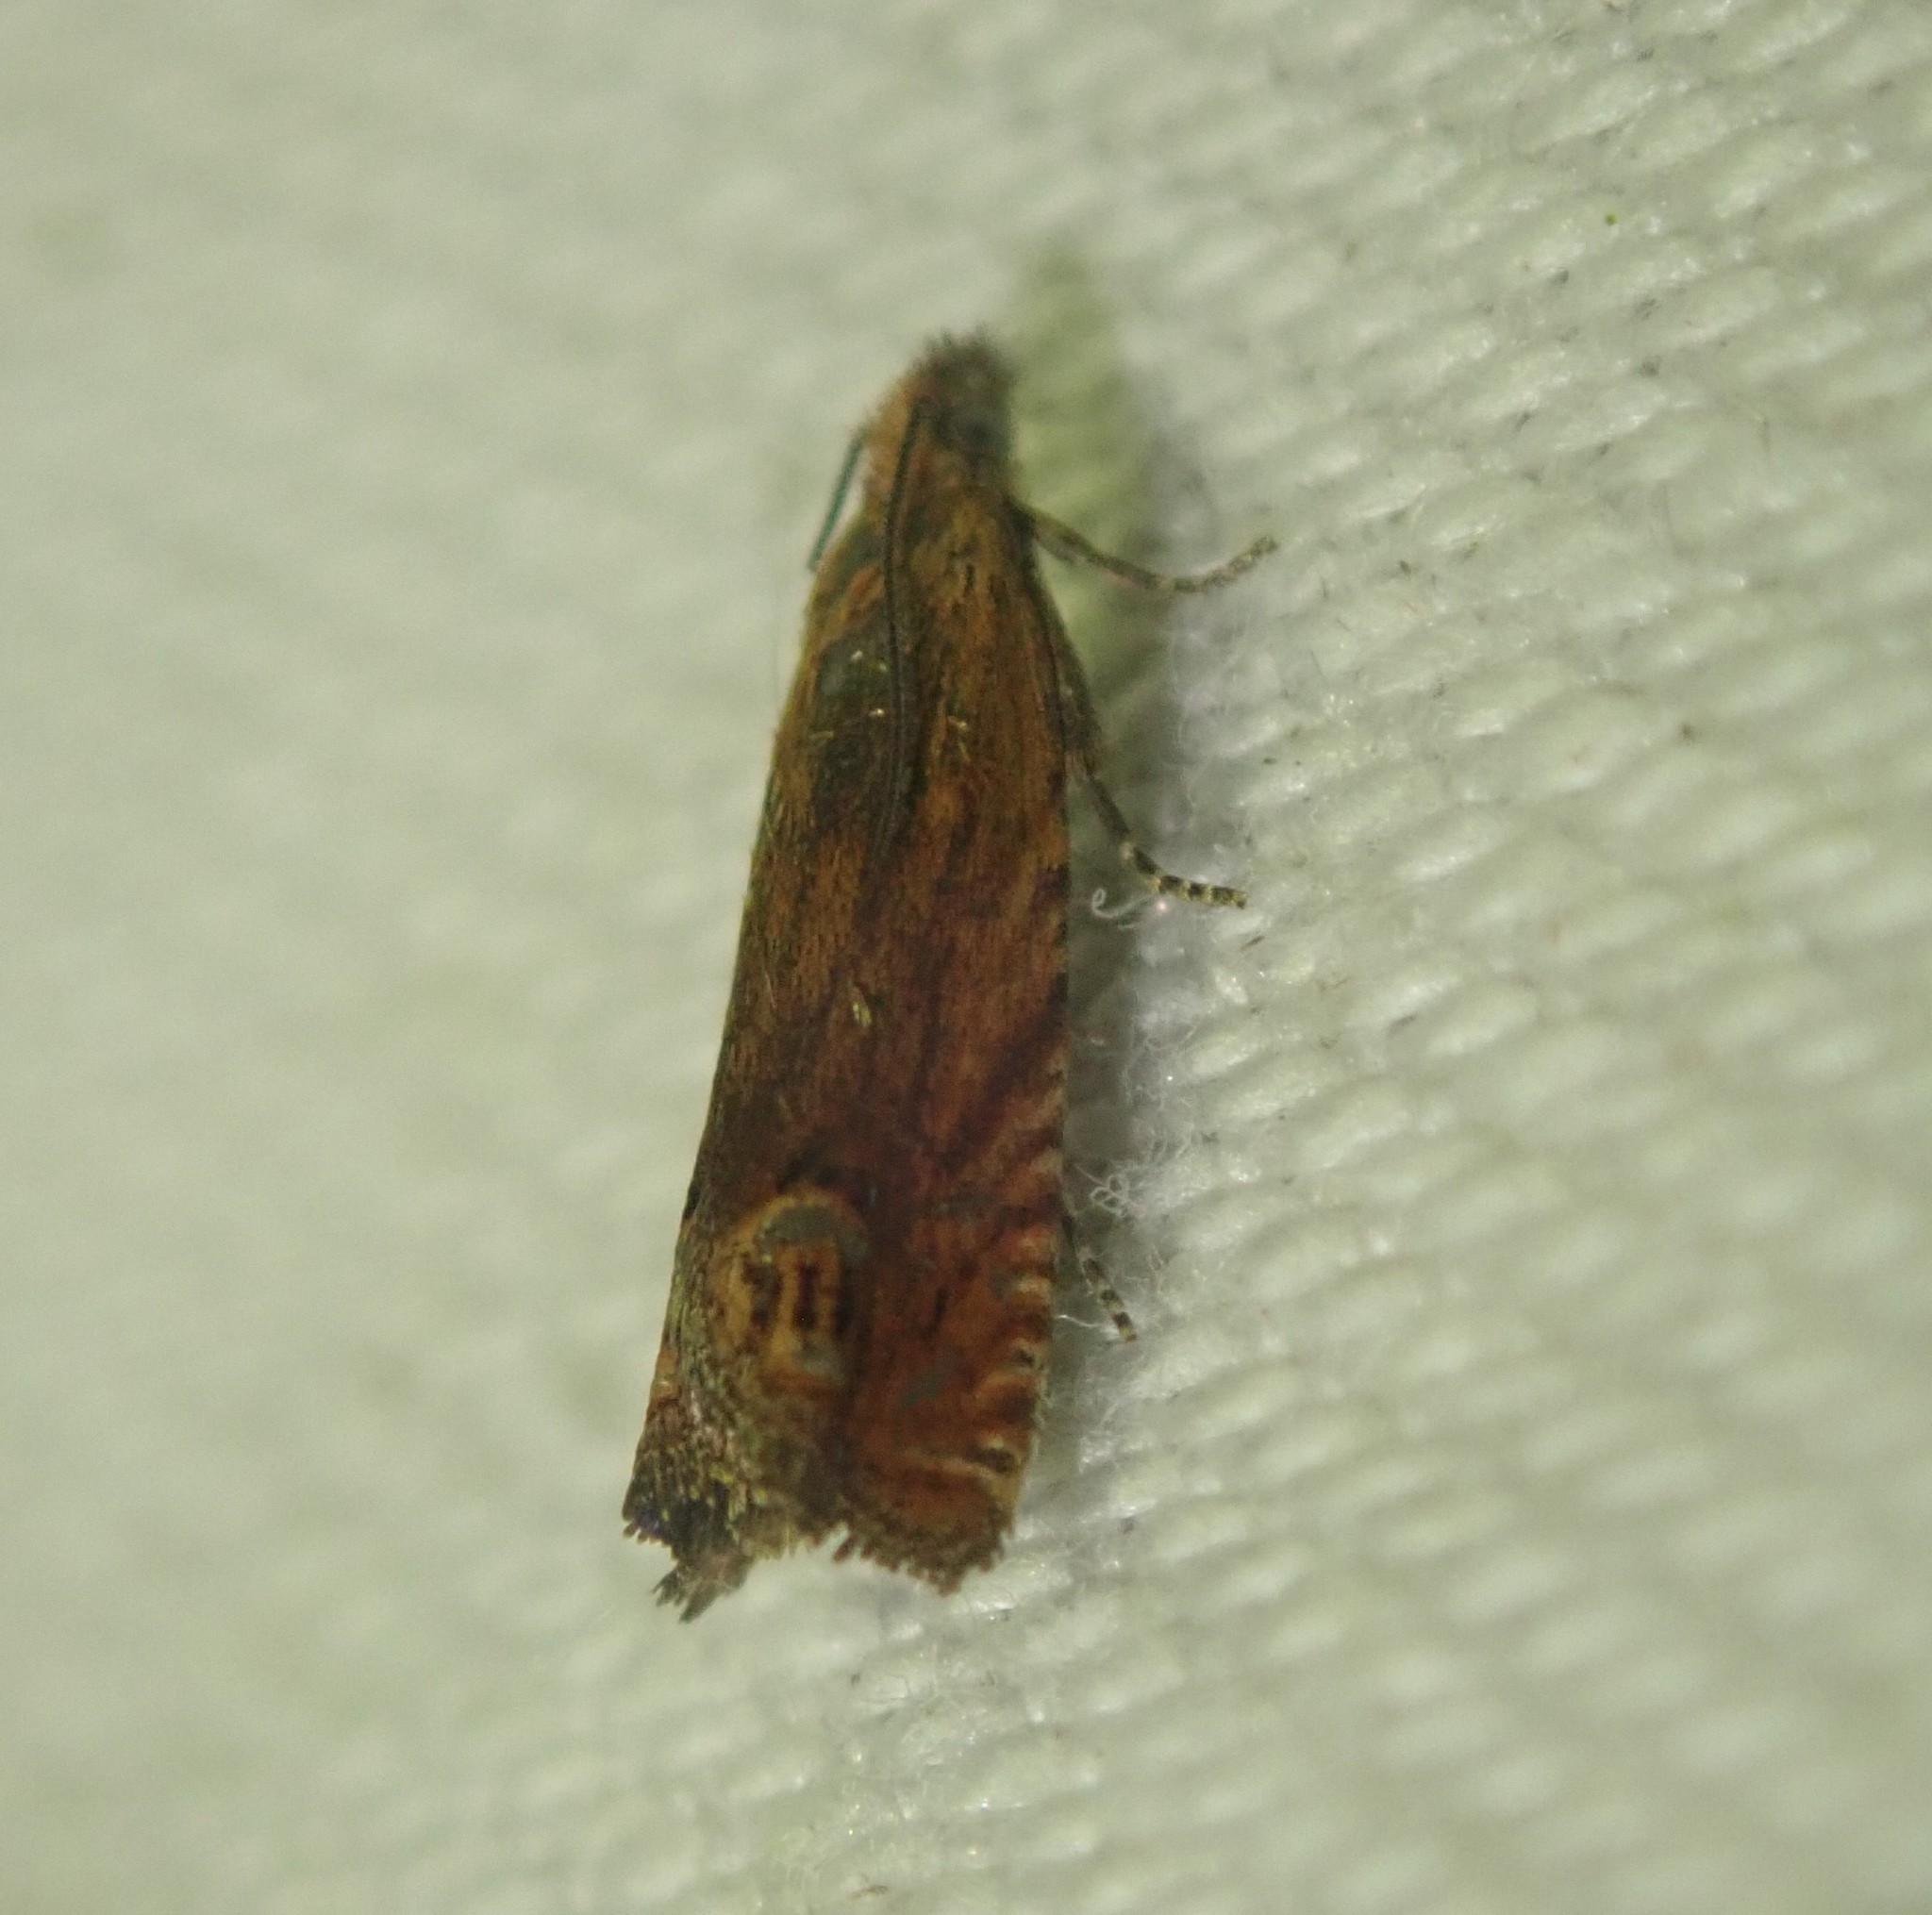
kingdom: Animalia
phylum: Arthropoda
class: Insecta
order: Lepidoptera
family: Tortricidae
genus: Lathronympha
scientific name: Lathronympha strigana
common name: Red piercer
